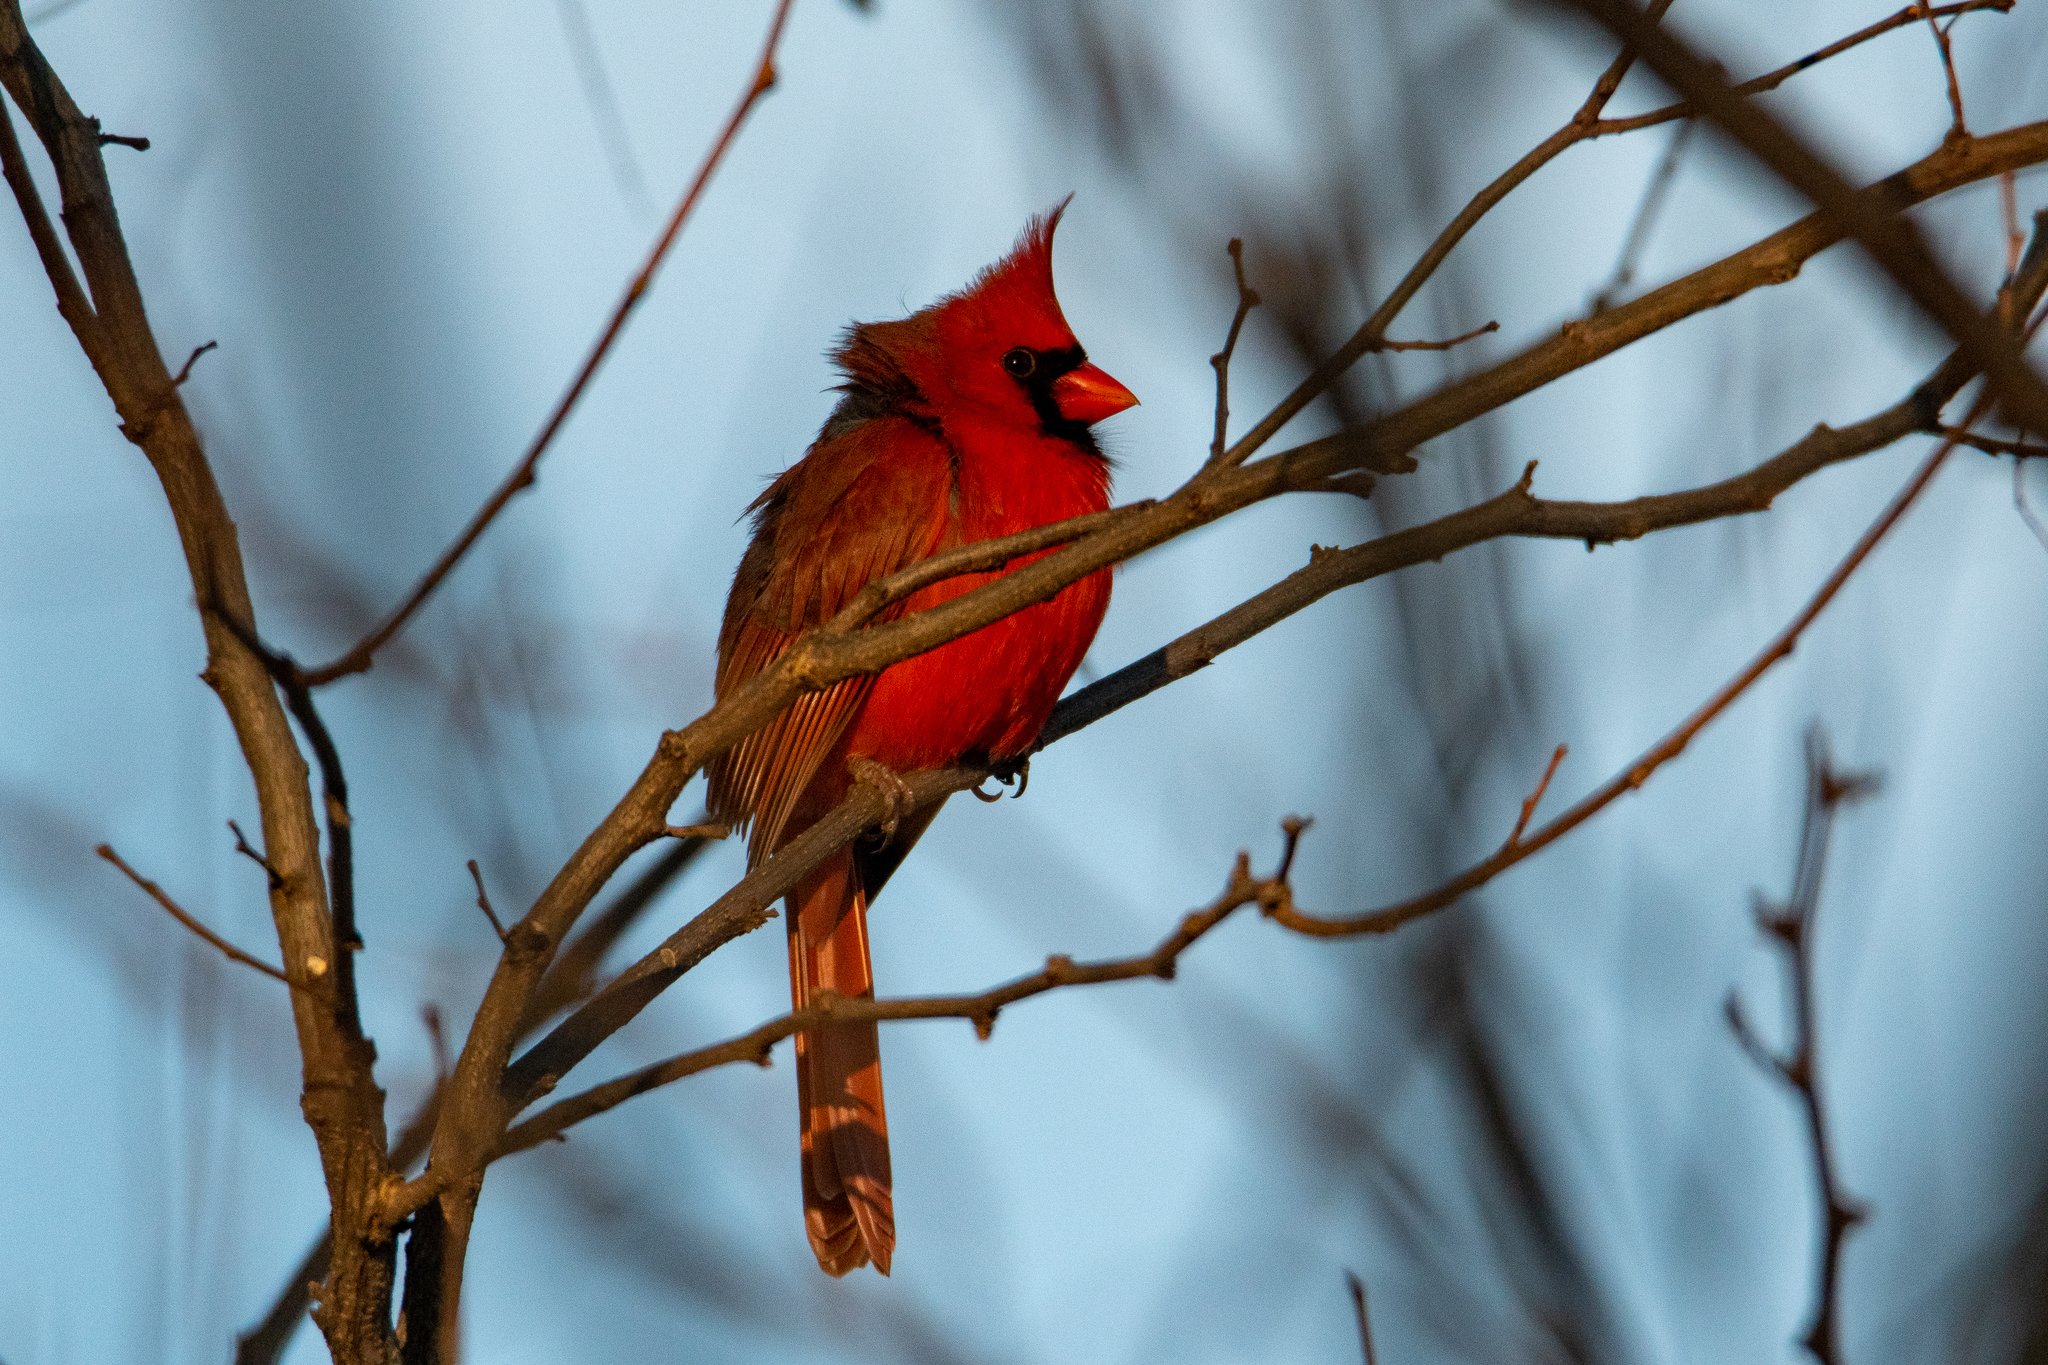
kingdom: Animalia
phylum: Chordata
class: Aves
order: Passeriformes
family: Cardinalidae
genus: Cardinalis
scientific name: Cardinalis cardinalis
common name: Northern cardinal
